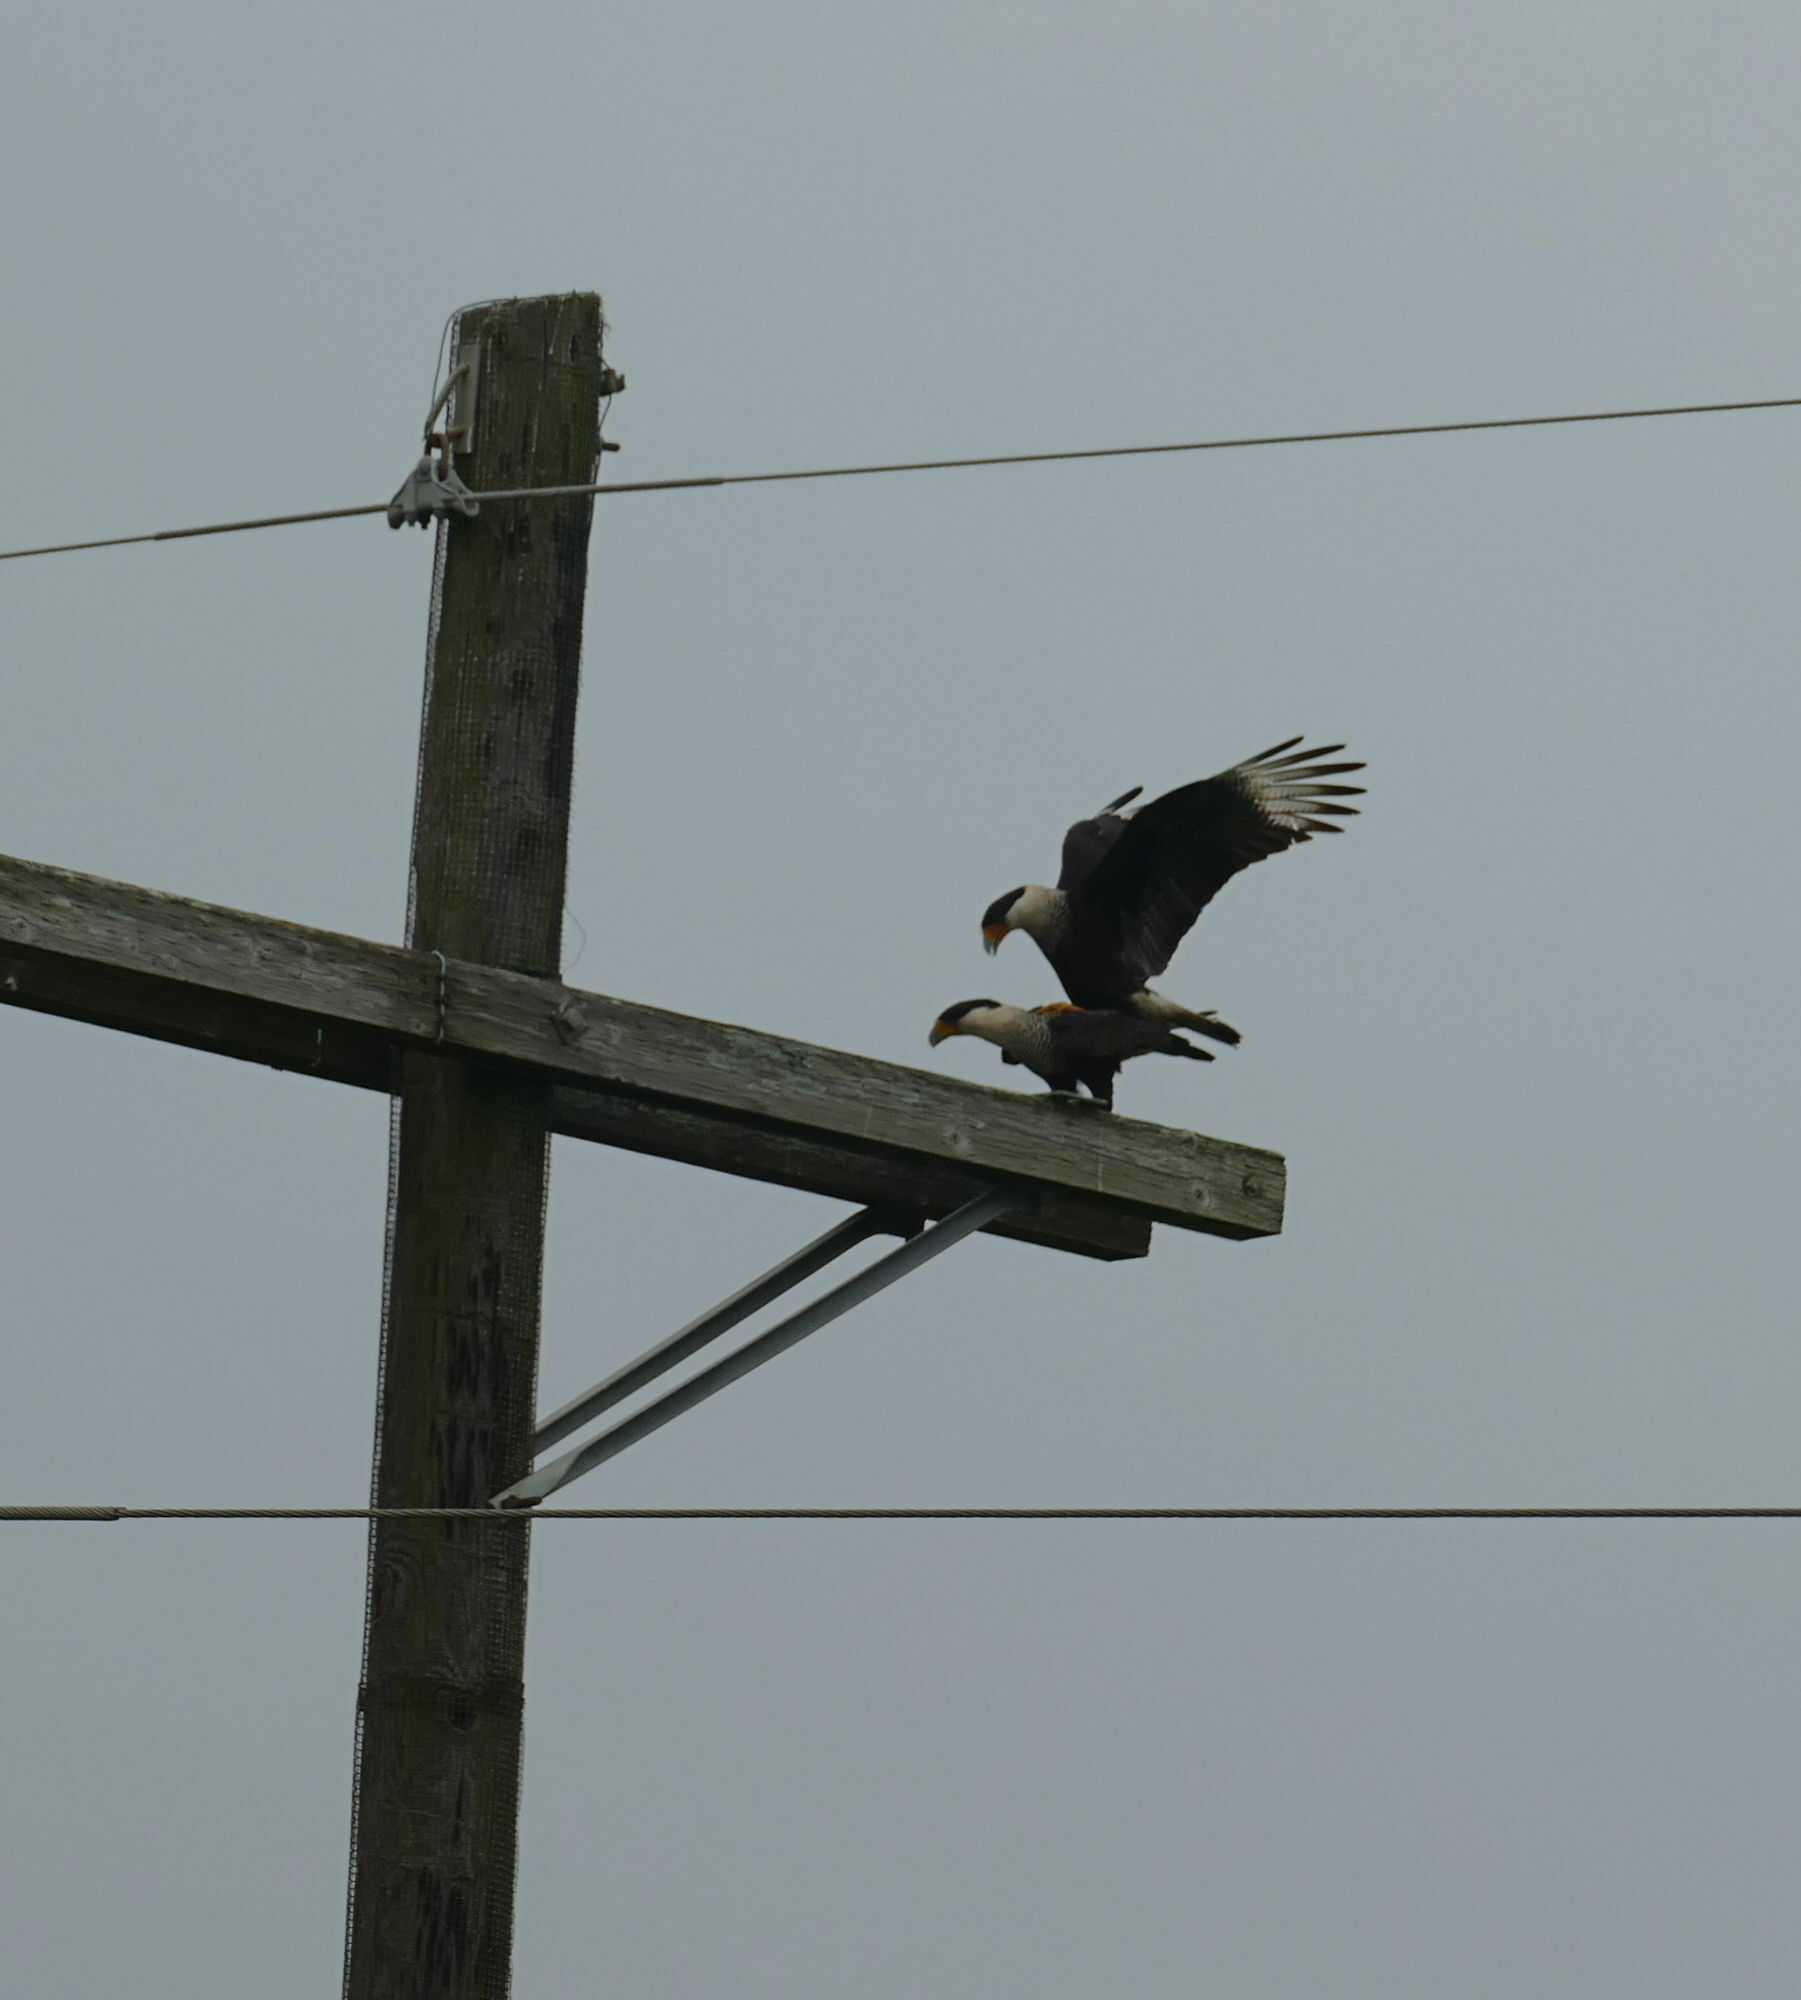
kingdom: Animalia
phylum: Chordata
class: Aves
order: Falconiformes
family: Falconidae
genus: Caracara
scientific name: Caracara plancus
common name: Southern caracara
